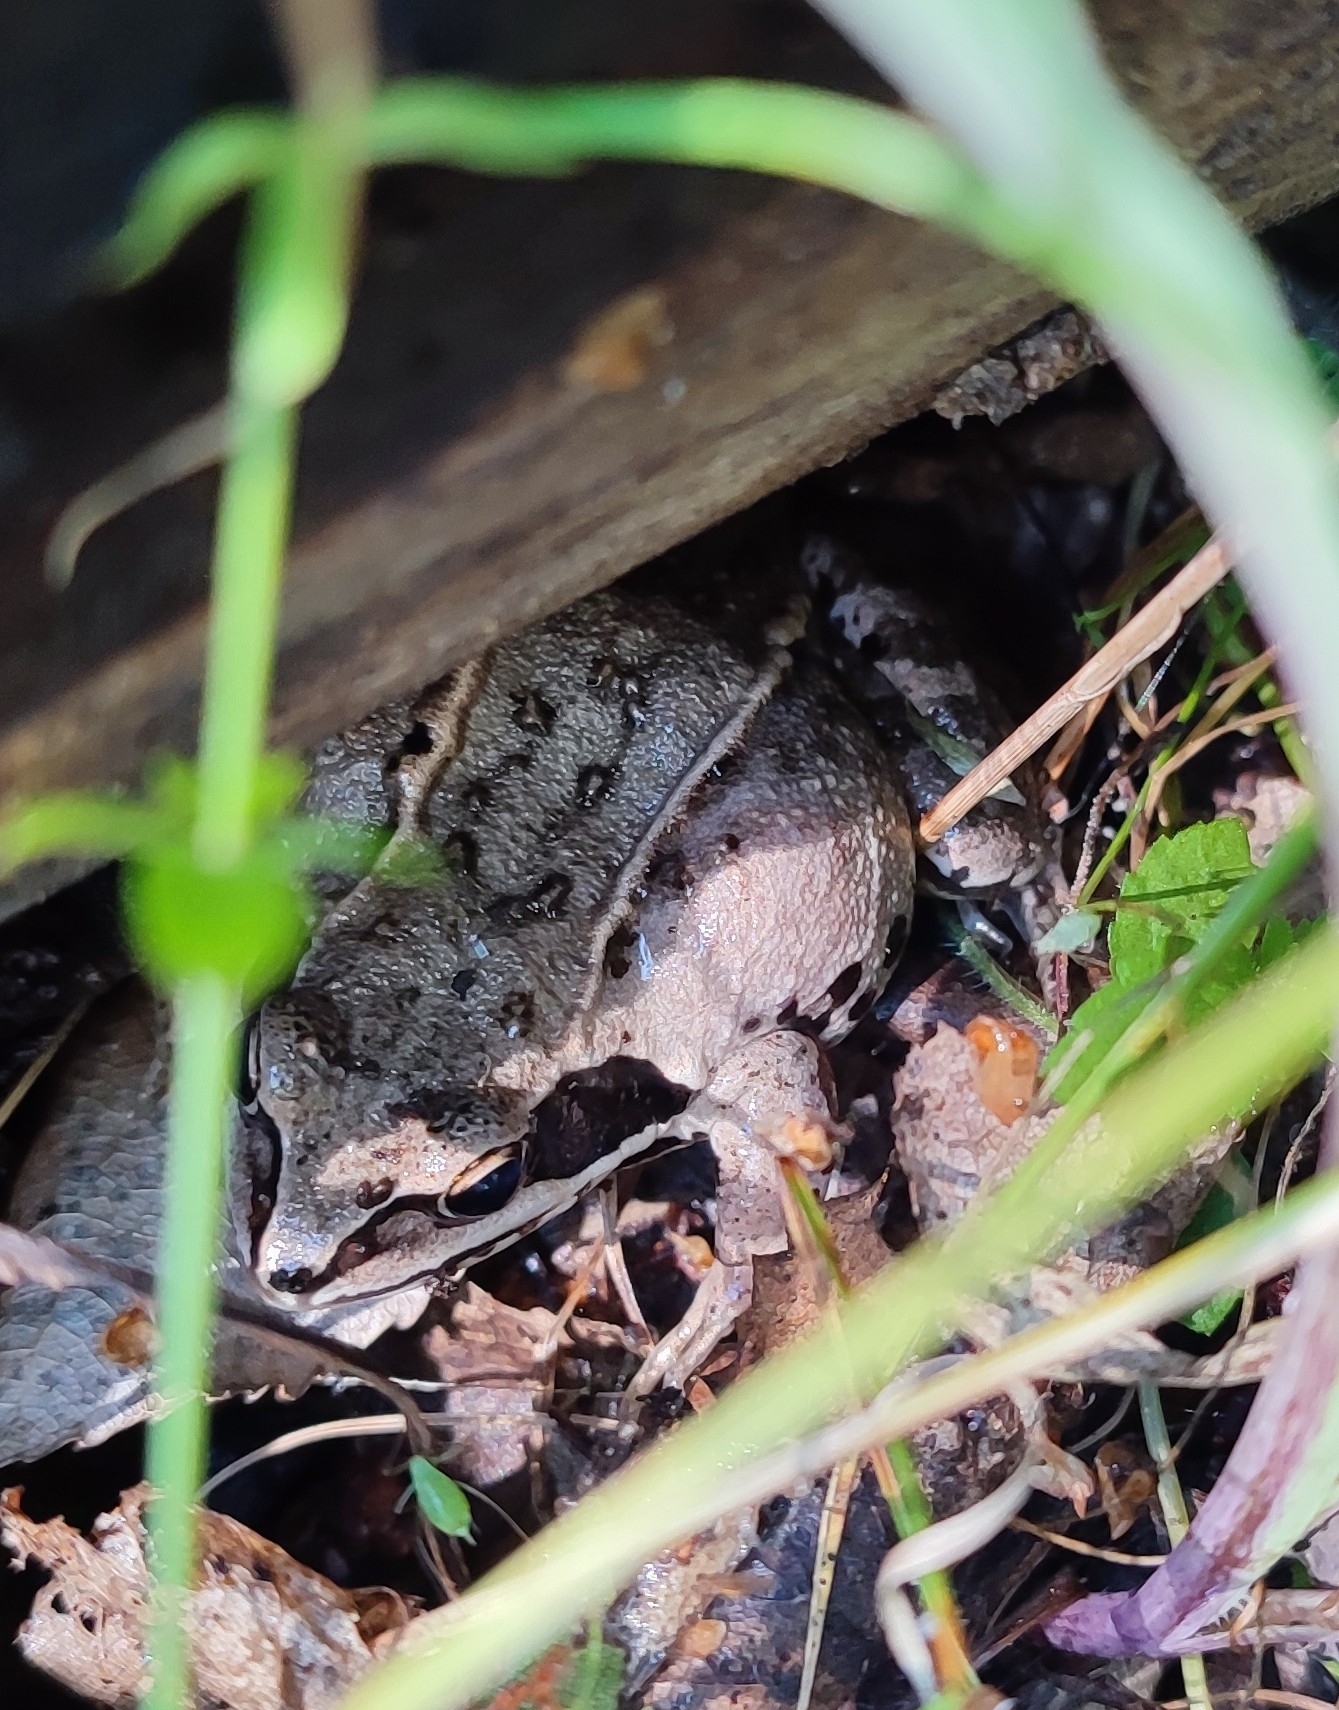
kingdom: Animalia
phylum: Chordata
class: Amphibia
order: Anura
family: Ranidae
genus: Rana
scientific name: Rana arvalis
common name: Moor frog
